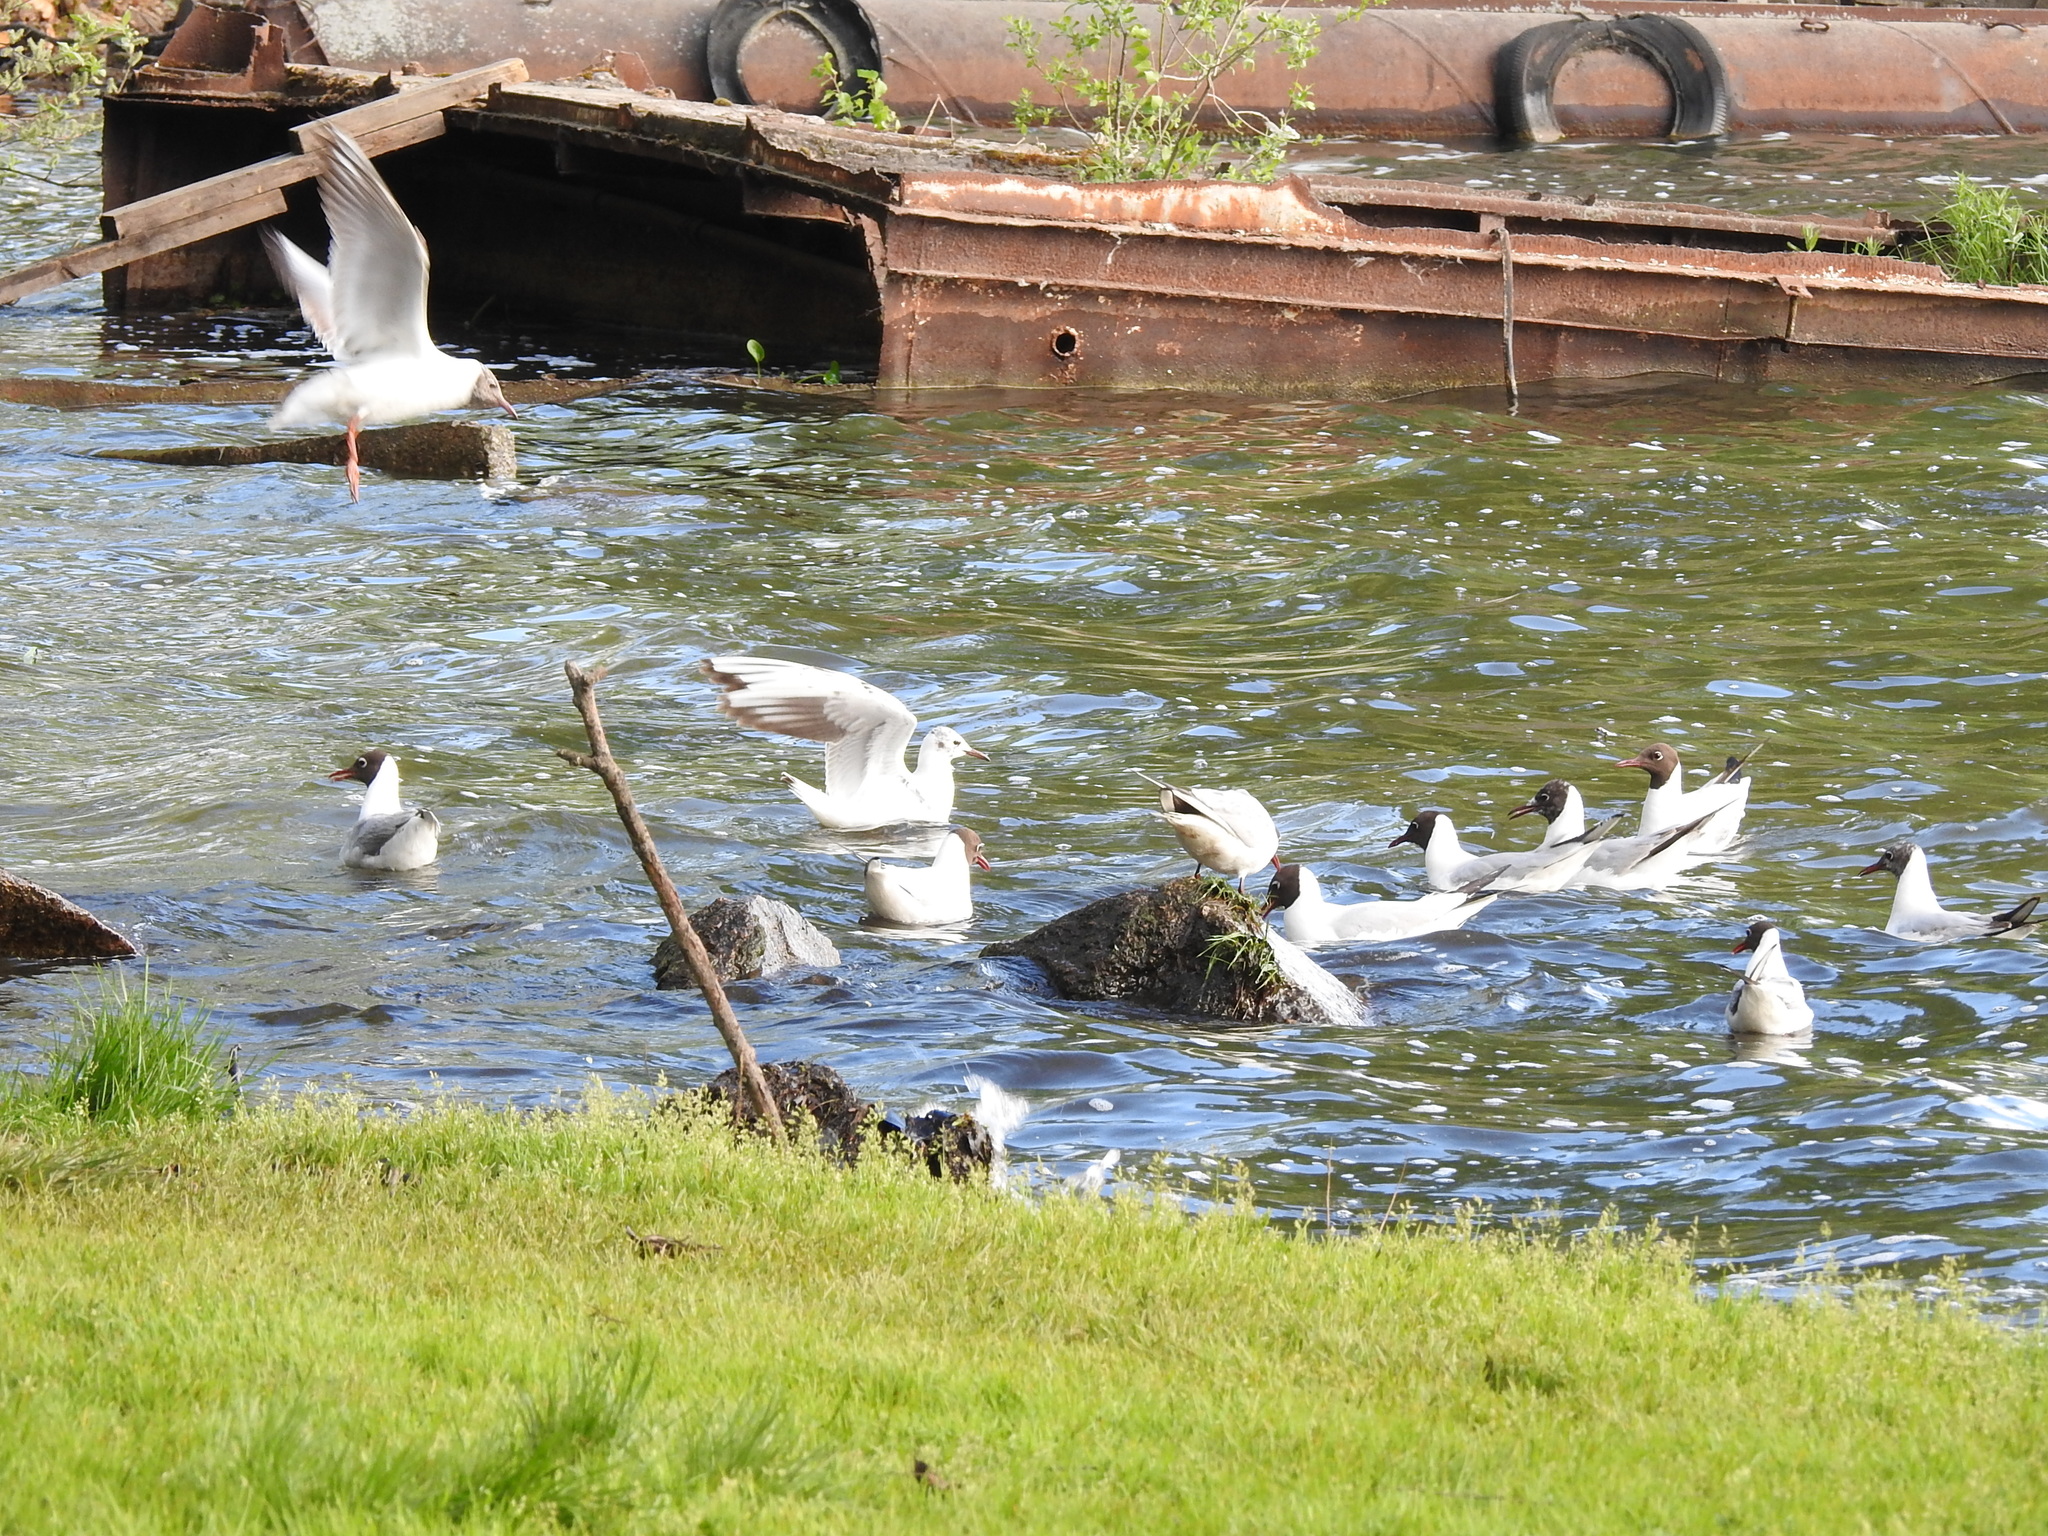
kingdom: Animalia
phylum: Chordata
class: Aves
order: Charadriiformes
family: Laridae
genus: Chroicocephalus
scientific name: Chroicocephalus ridibundus
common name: Black-headed gull
